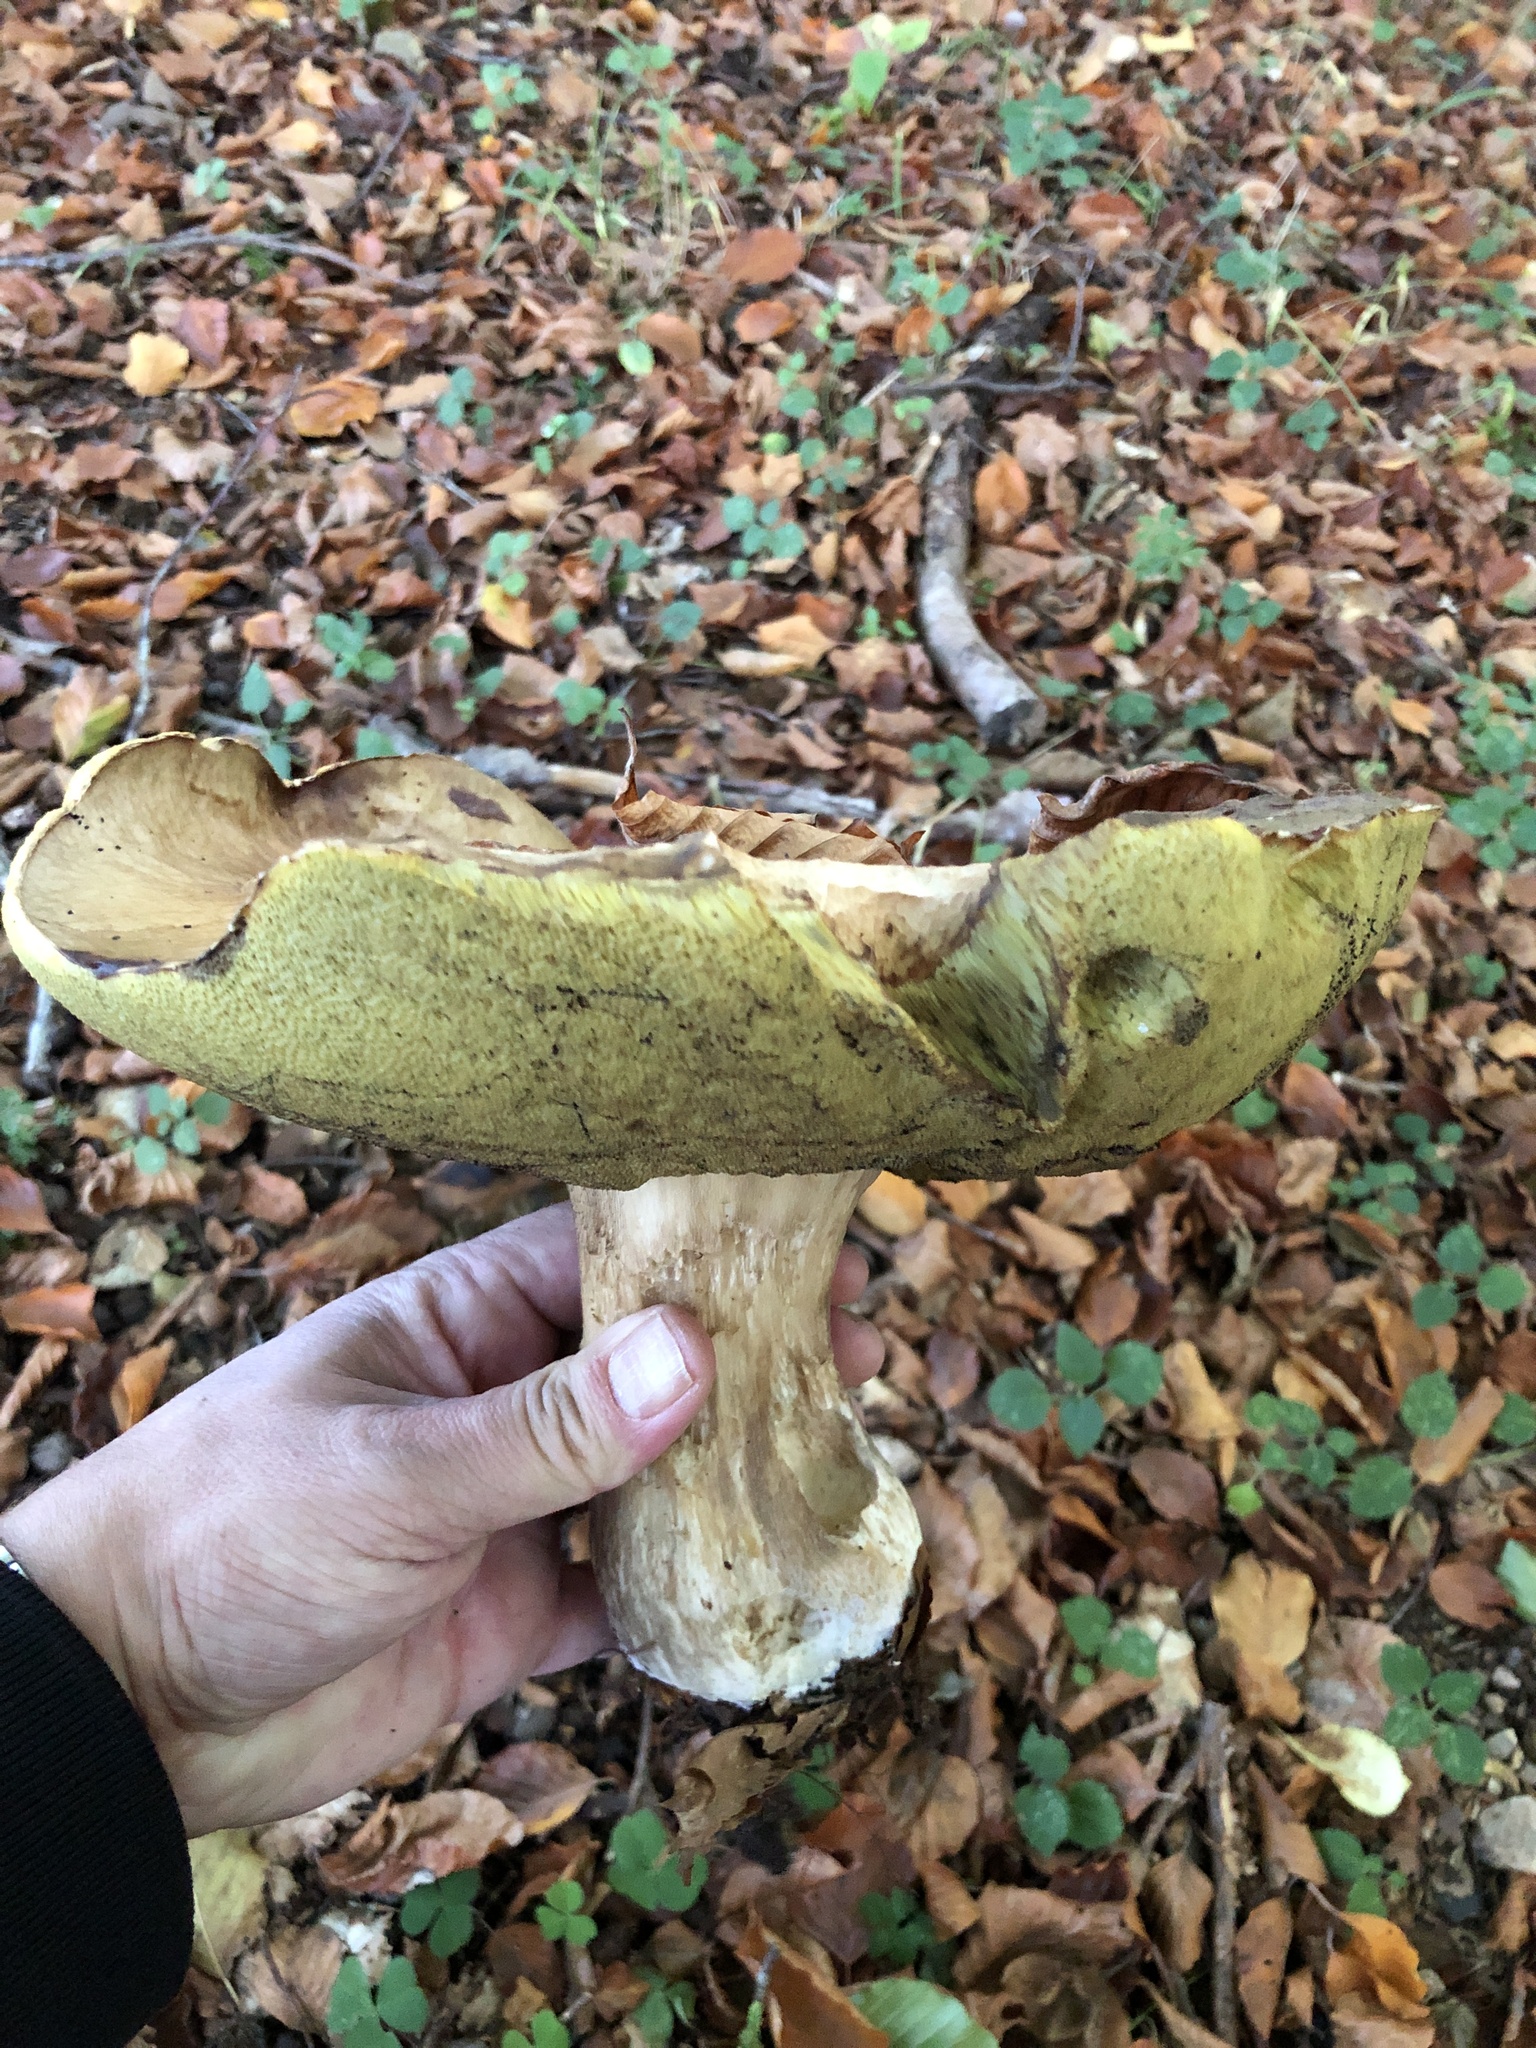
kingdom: Fungi
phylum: Basidiomycota
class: Agaricomycetes
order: Boletales
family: Boletaceae
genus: Boletus
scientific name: Boletus edulis
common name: Cep
